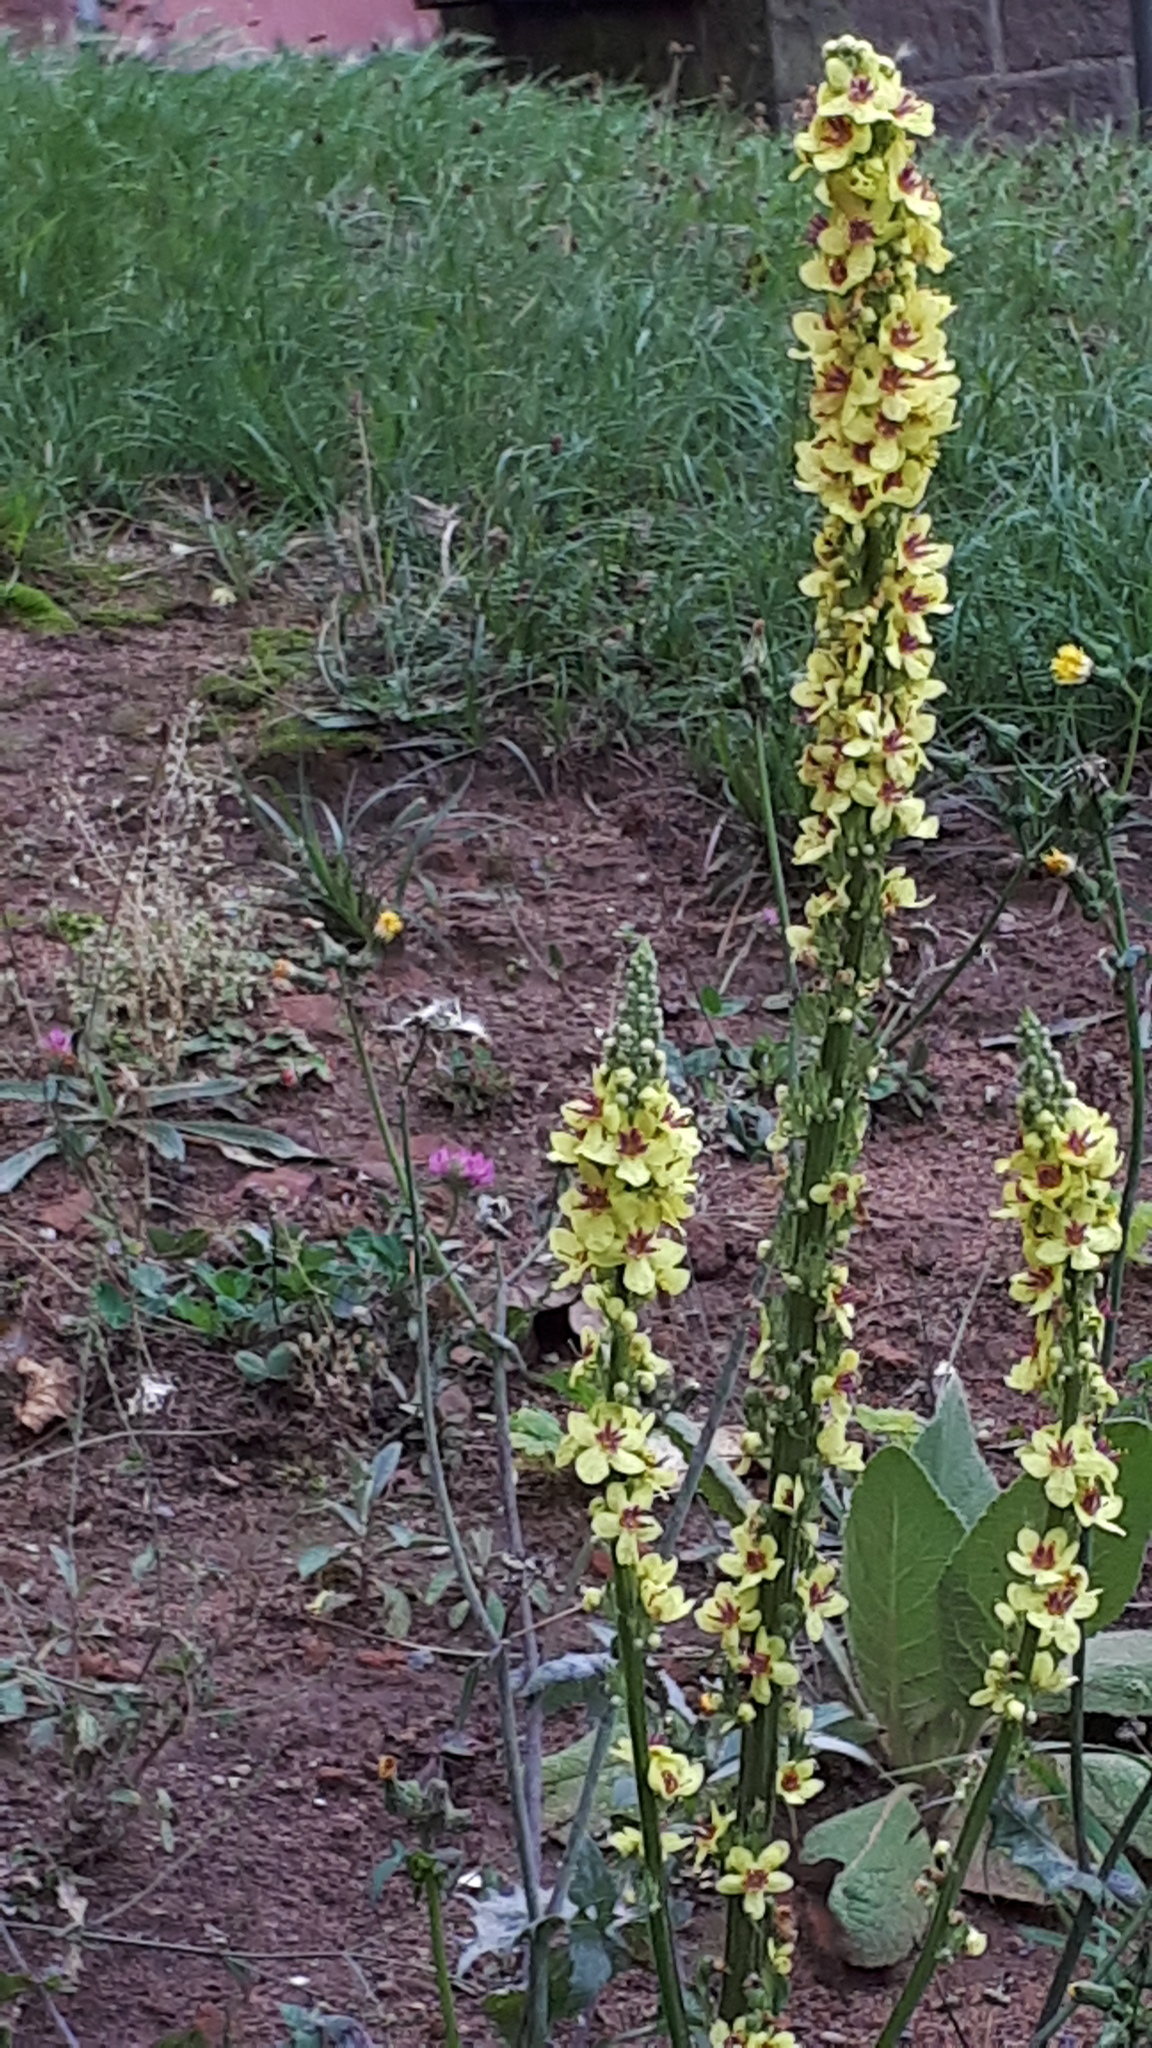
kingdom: Plantae
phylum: Tracheophyta
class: Magnoliopsida
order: Lamiales
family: Scrophulariaceae
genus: Verbascum
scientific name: Verbascum nigrum
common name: Dark mullein
